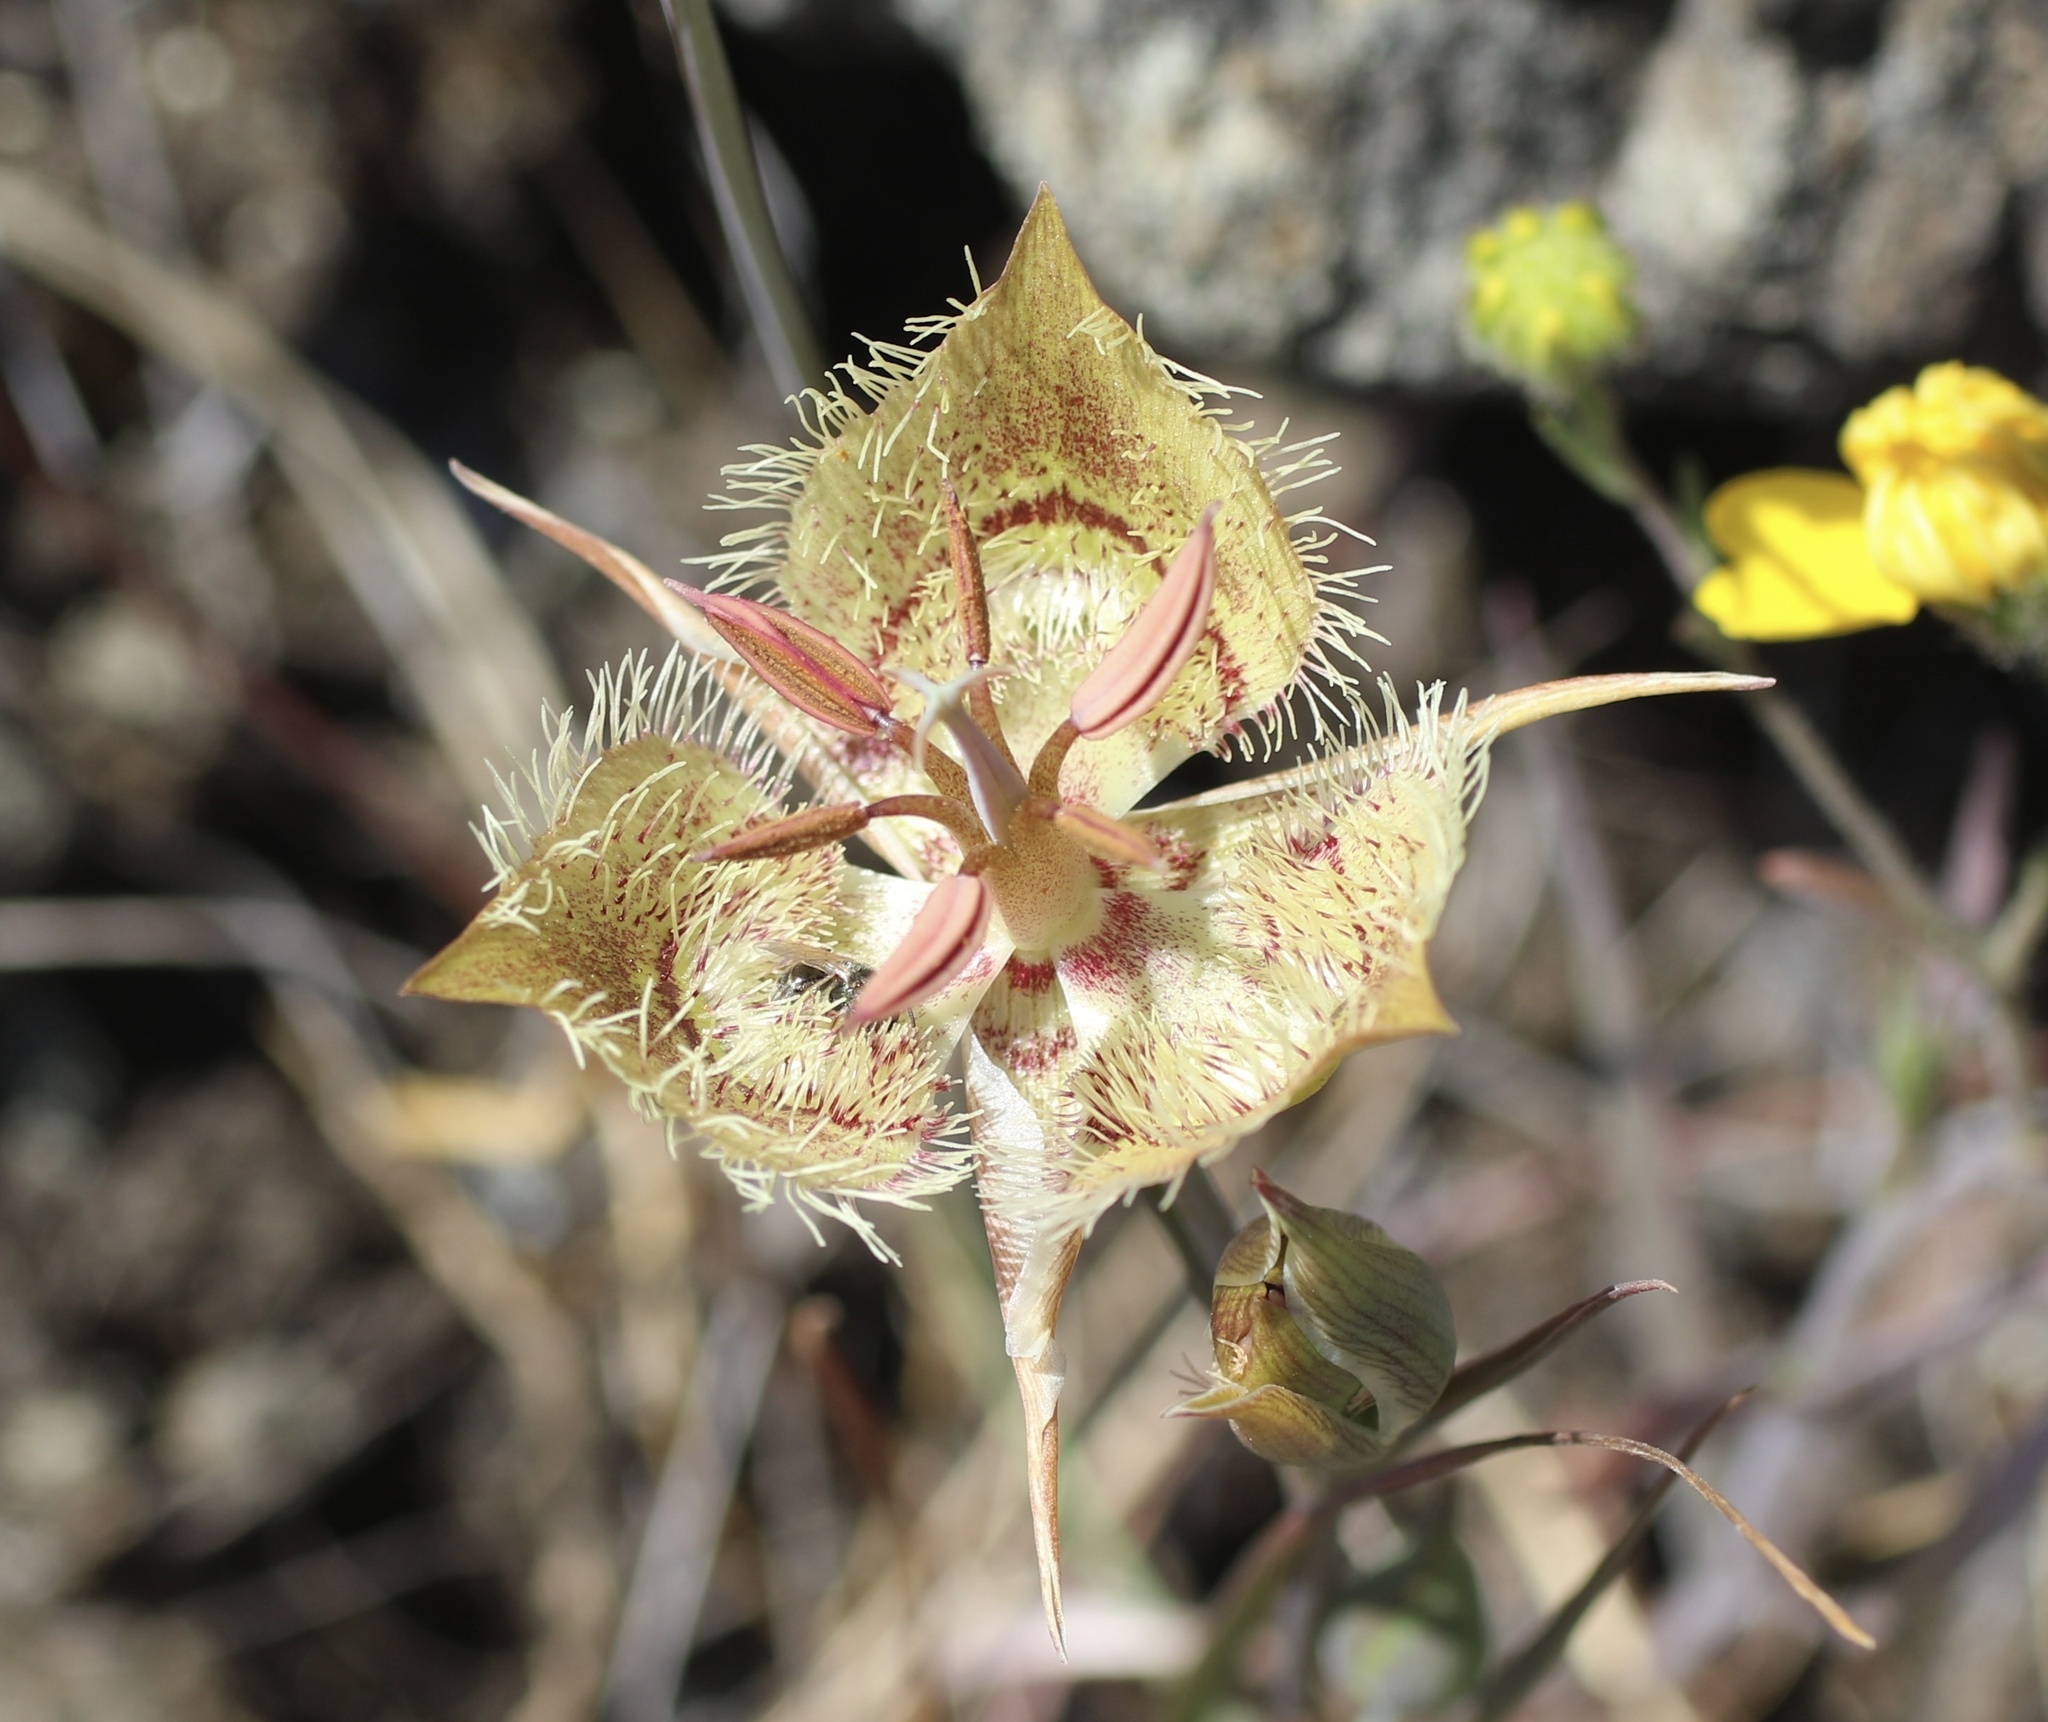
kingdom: Plantae
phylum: Tracheophyta
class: Liliopsida
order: Liliales
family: Liliaceae
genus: Calochortus
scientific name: Calochortus tiburonensis
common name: Tiburon mariposa-lily
